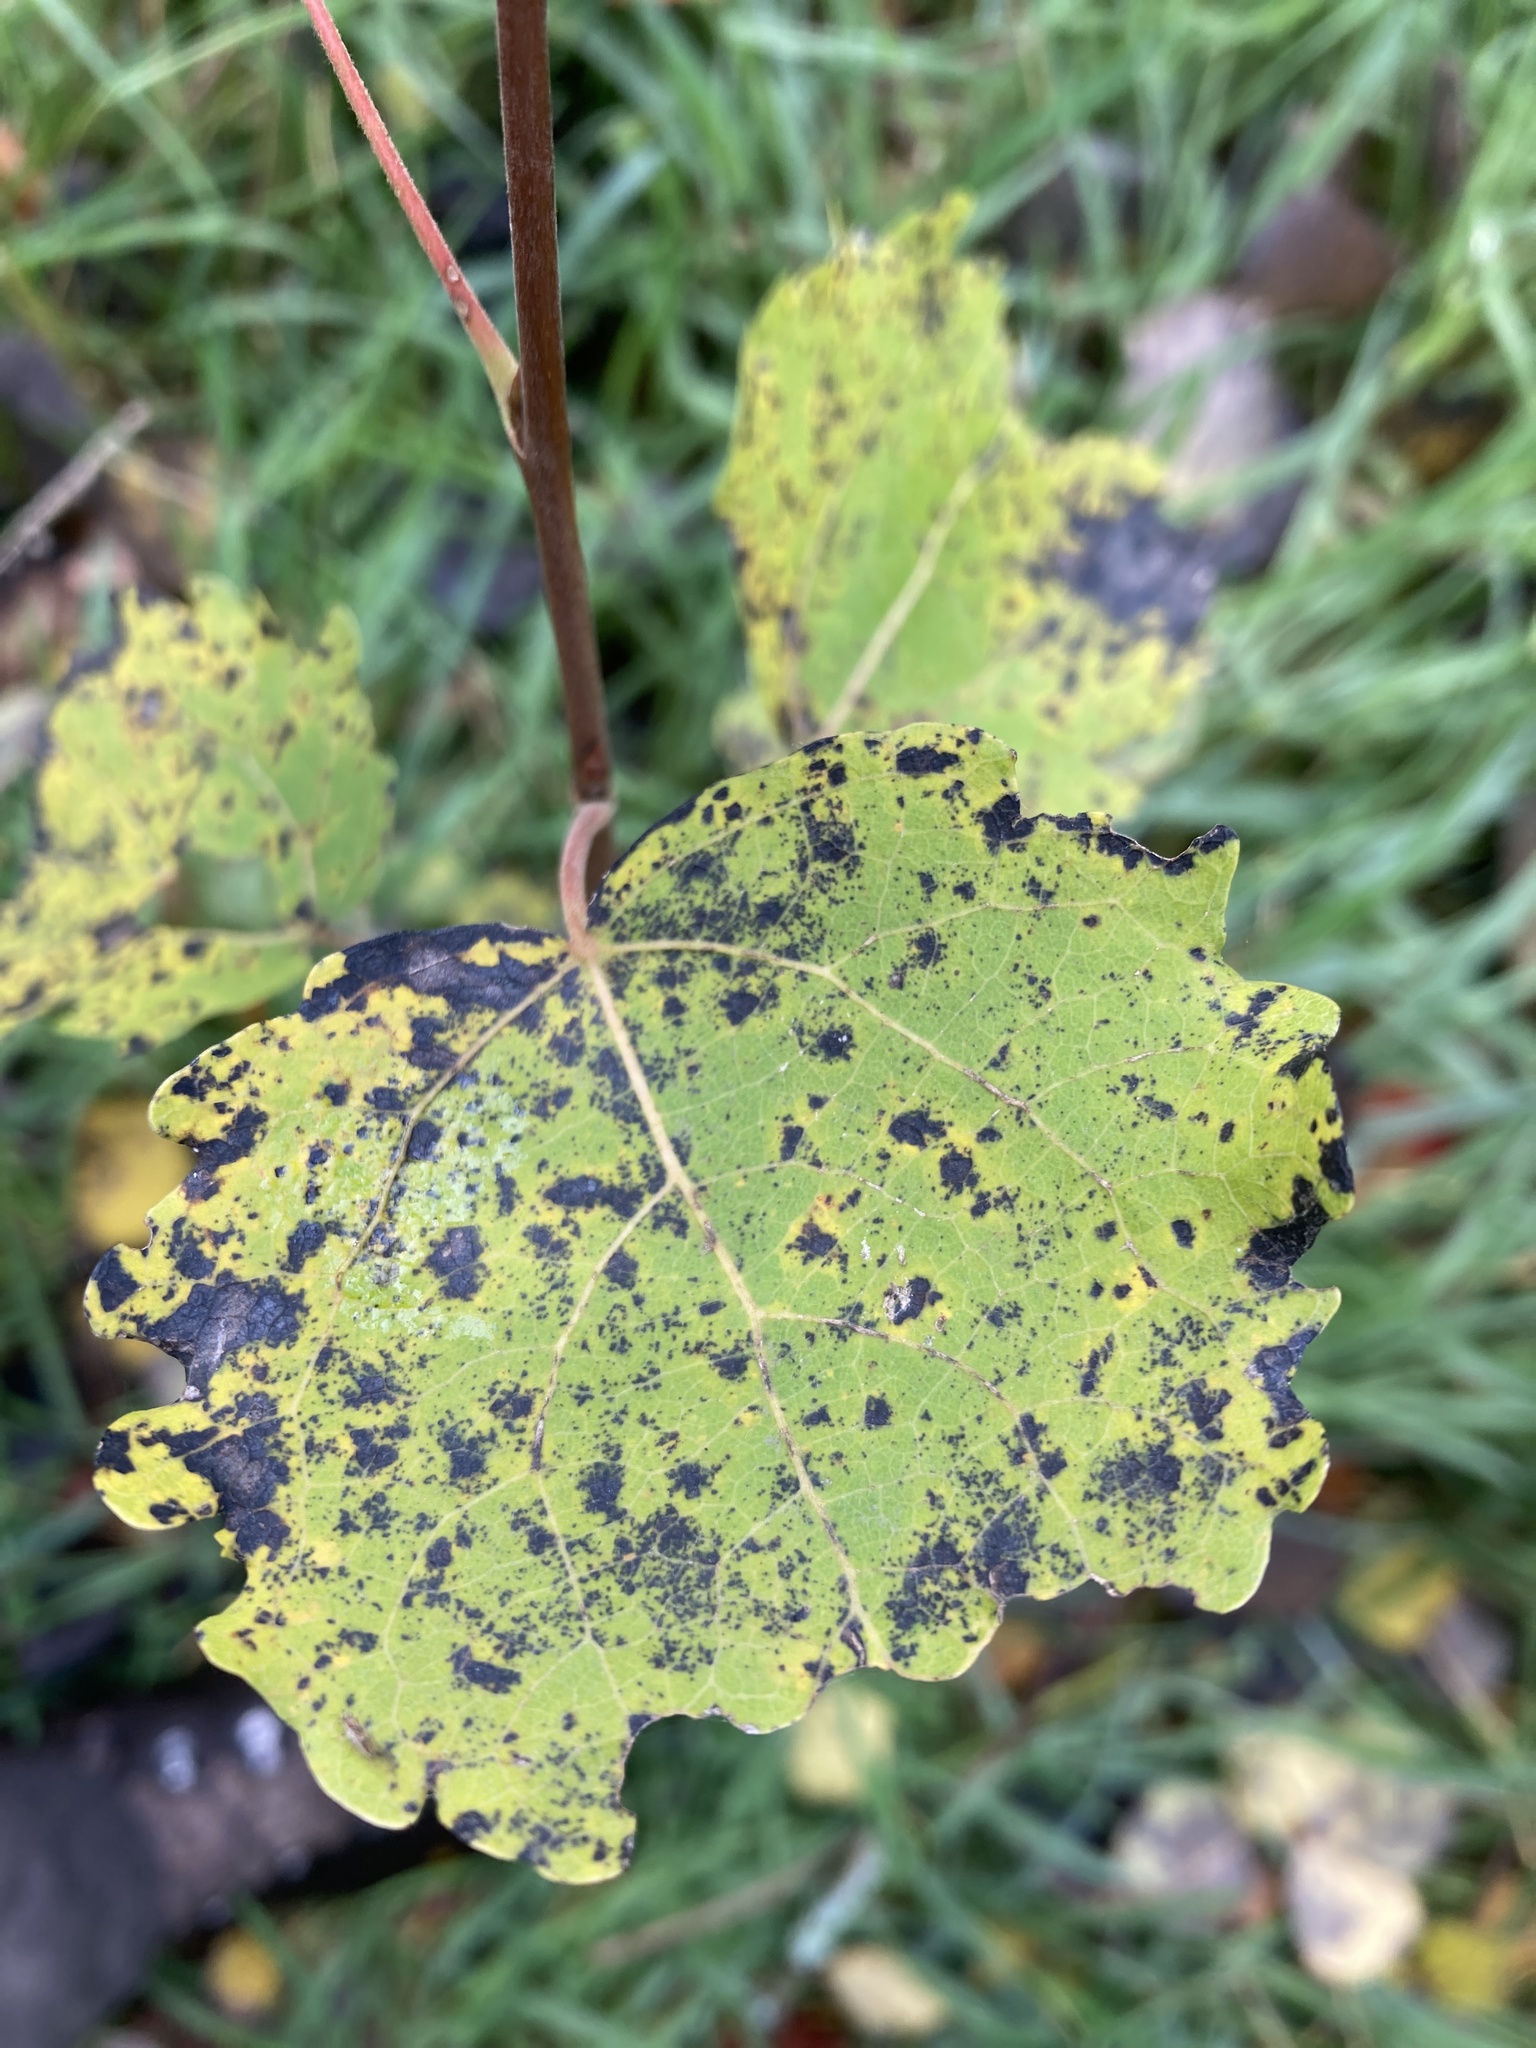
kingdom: Plantae
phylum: Tracheophyta
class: Magnoliopsida
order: Malpighiales
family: Salicaceae
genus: Populus
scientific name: Populus tremula
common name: European aspen
